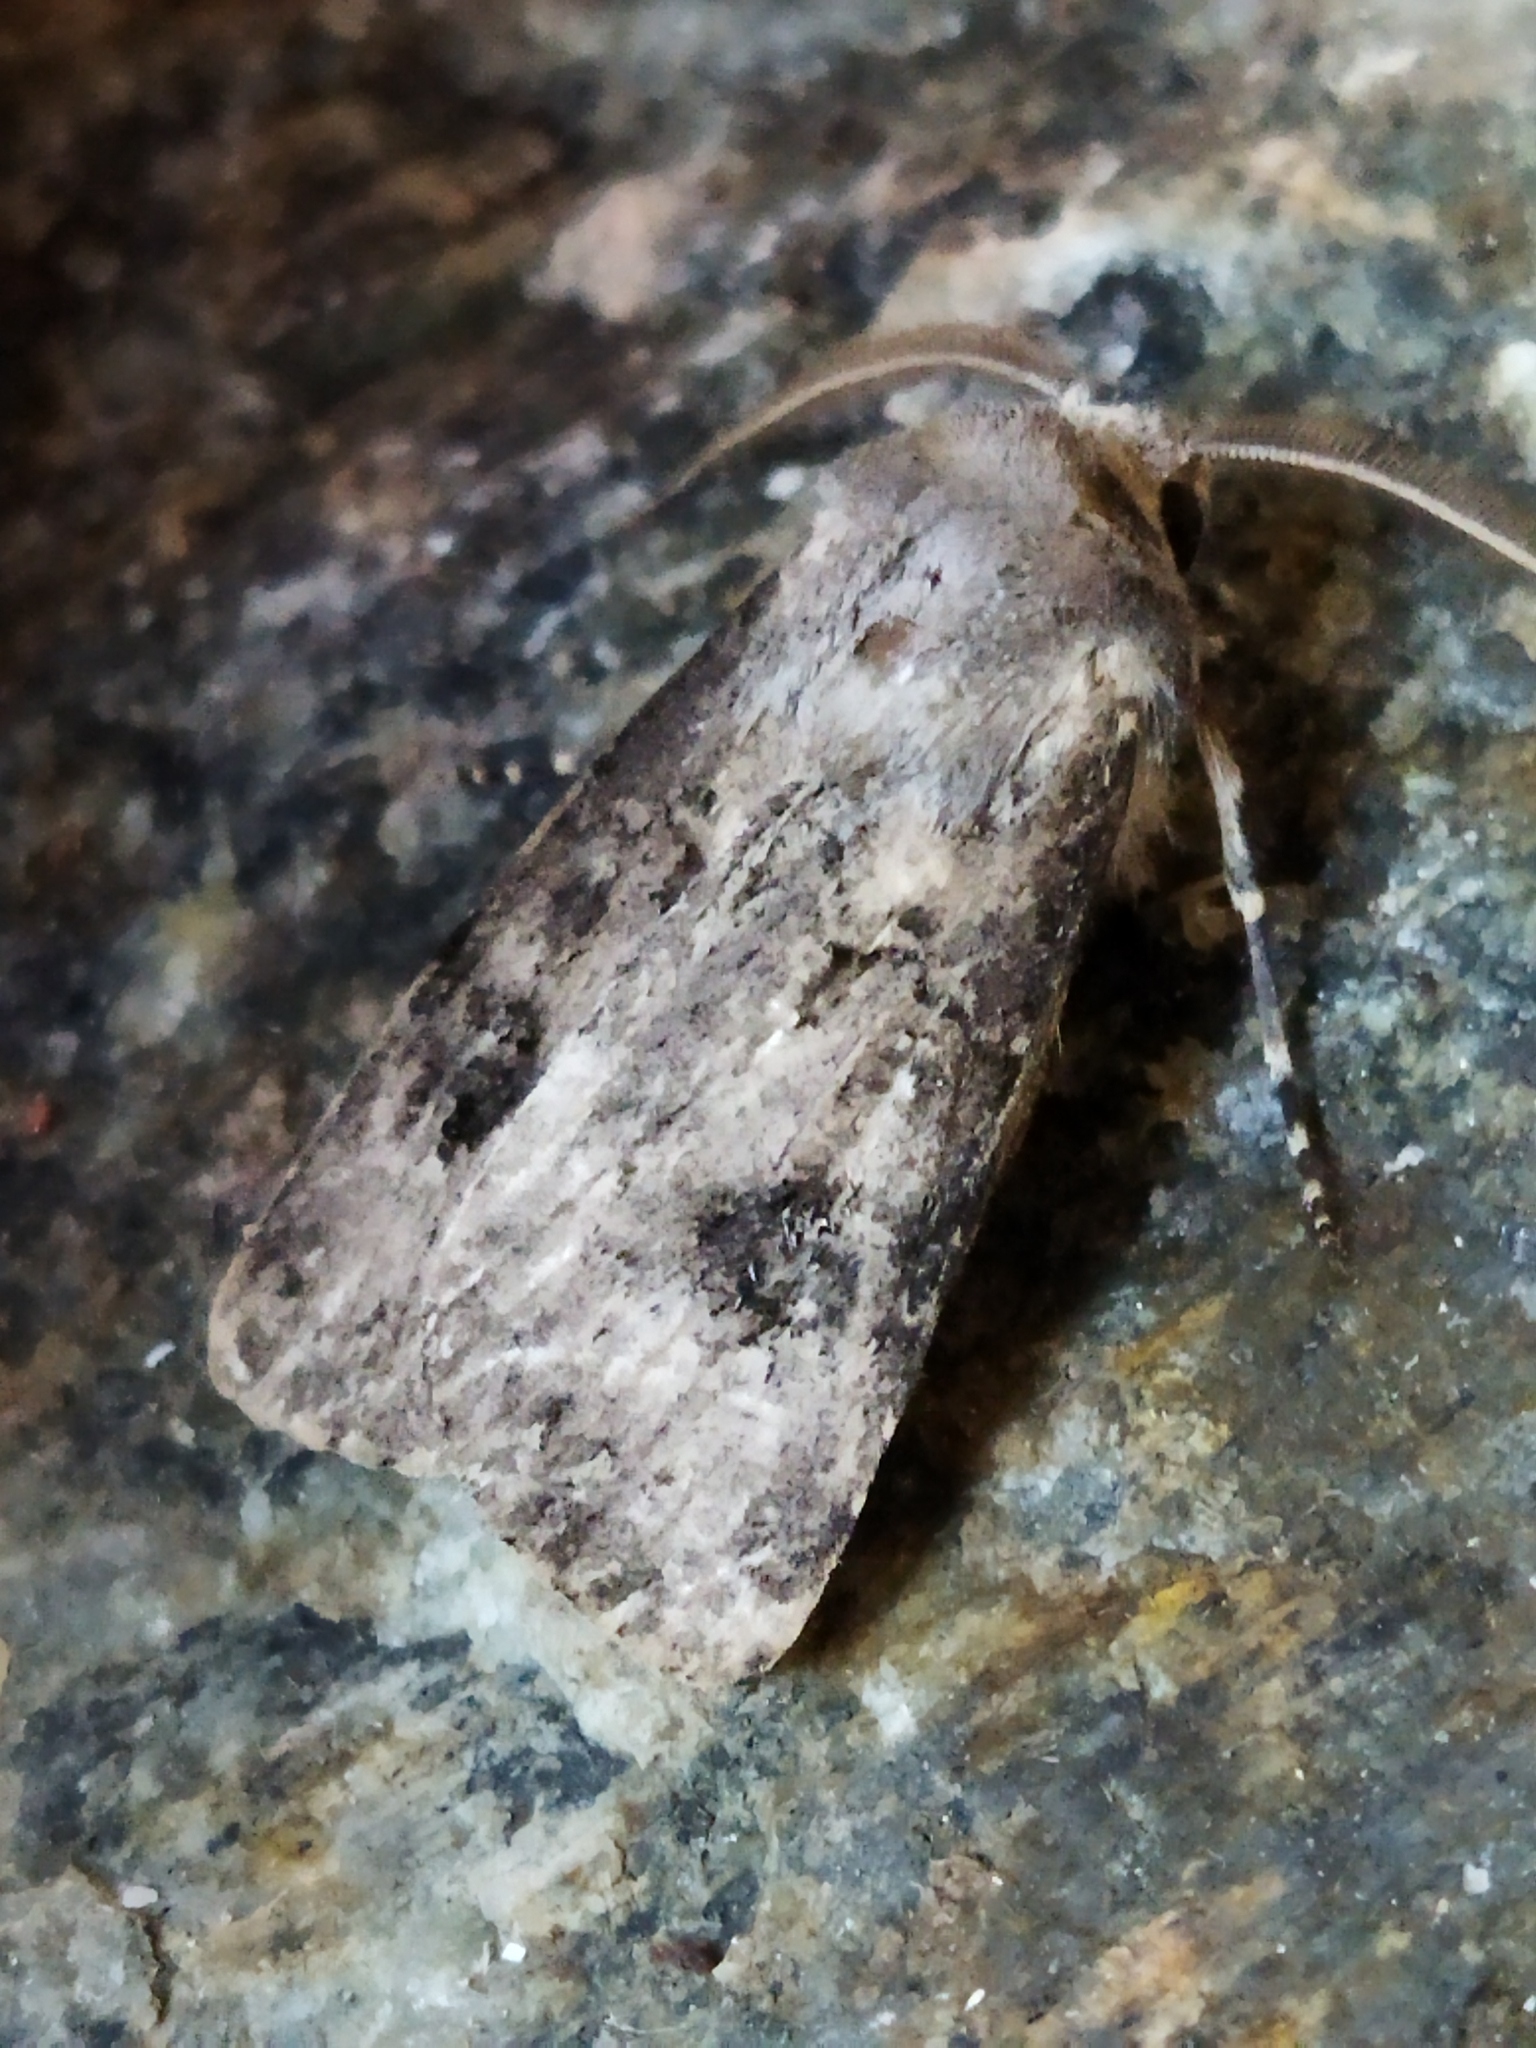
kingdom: Animalia
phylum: Arthropoda
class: Insecta
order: Lepidoptera
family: Noctuidae
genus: Agrotis
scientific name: Agrotis bigramma
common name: Great dart
